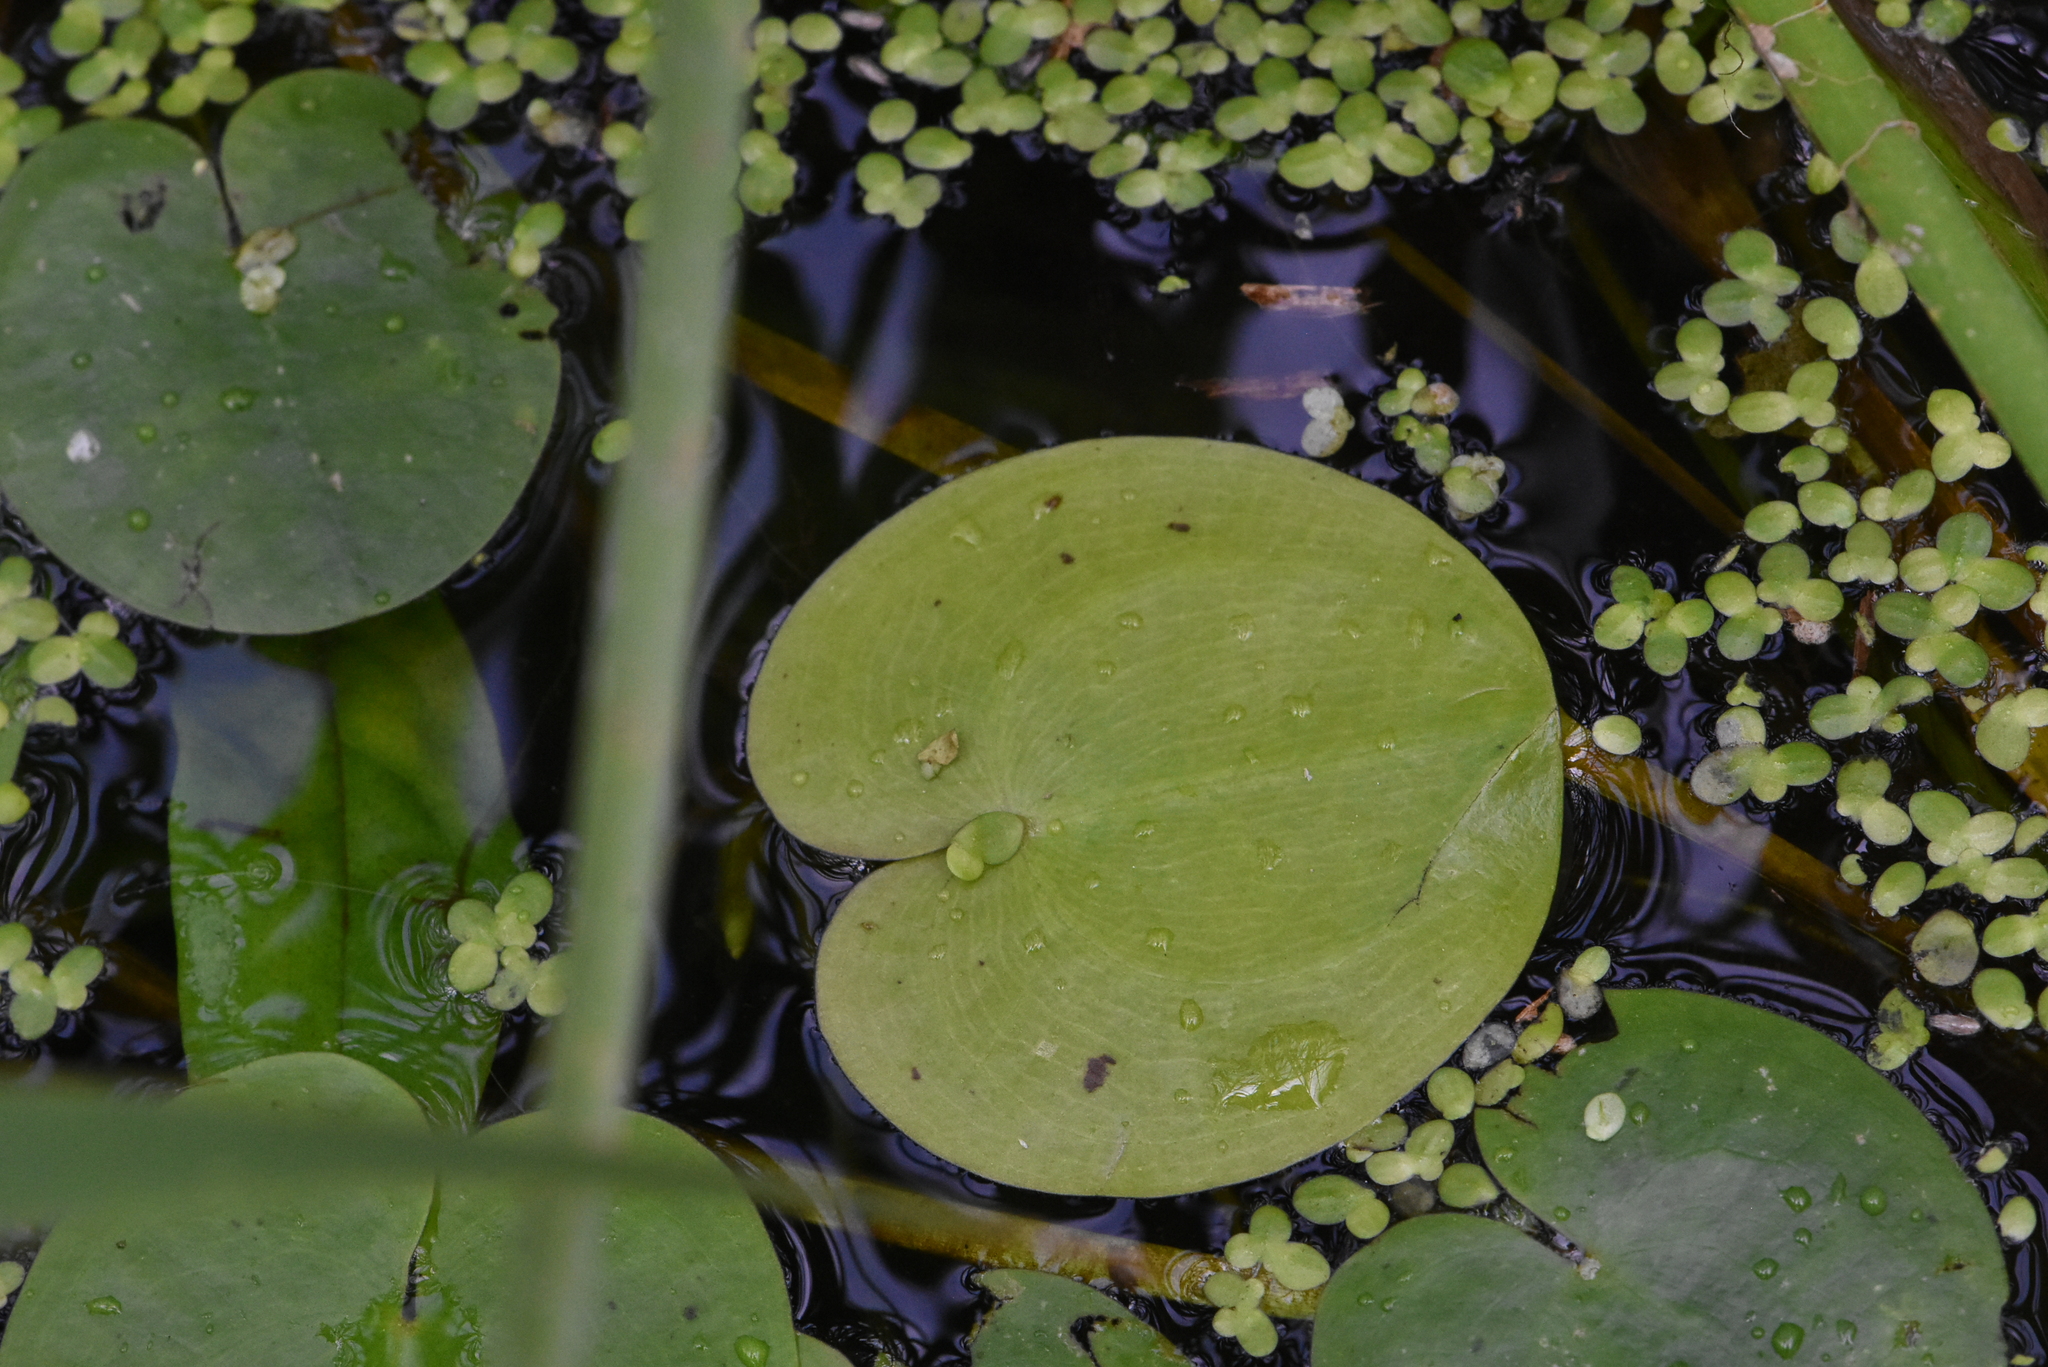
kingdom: Plantae
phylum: Tracheophyta
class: Liliopsida
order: Alismatales
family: Hydrocharitaceae
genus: Hydrocharis
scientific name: Hydrocharis morsus-ranae
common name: Frogbit
